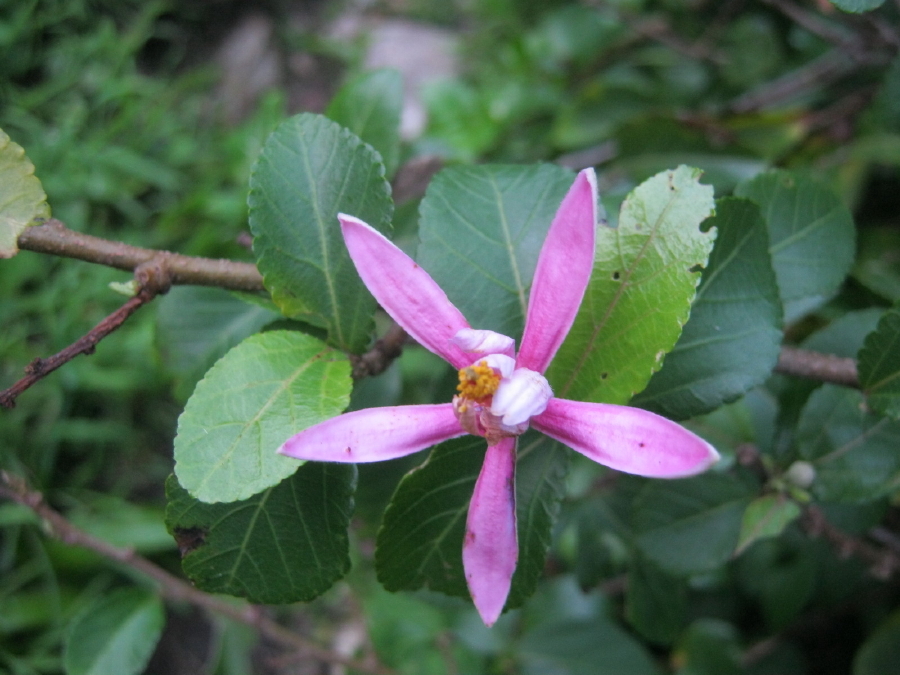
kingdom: Plantae
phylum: Tracheophyta
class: Magnoliopsida
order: Malvales
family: Malvaceae
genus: Grewia
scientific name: Grewia occidentalis
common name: Crossberry
